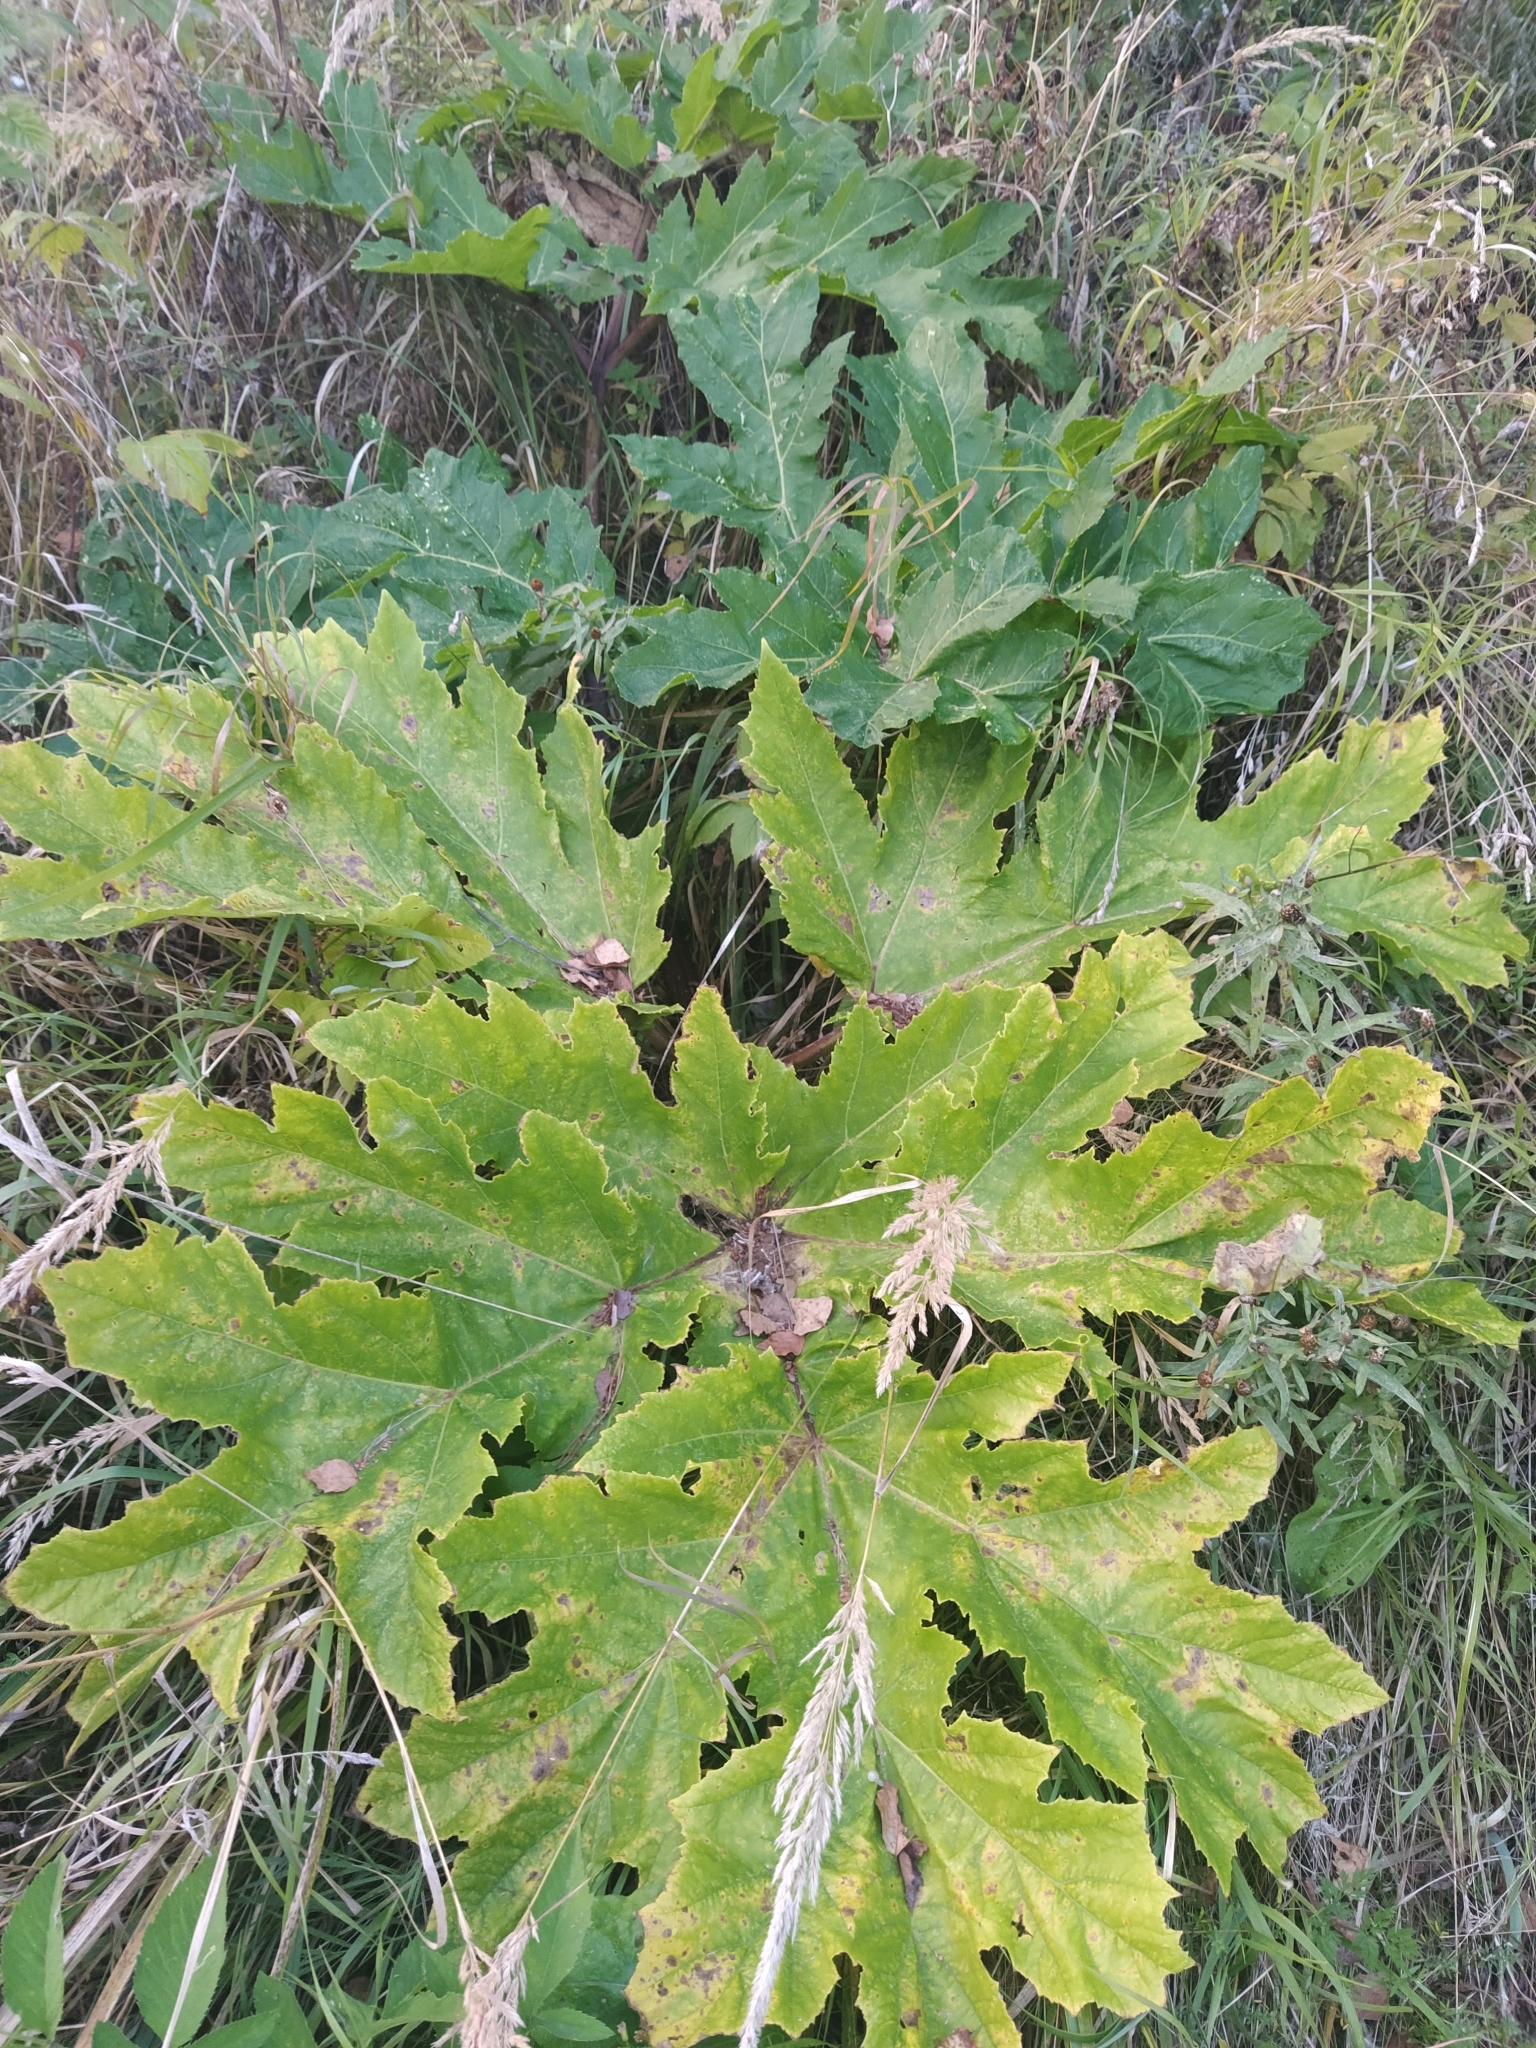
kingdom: Plantae
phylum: Tracheophyta
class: Magnoliopsida
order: Apiales
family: Apiaceae
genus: Heracleum
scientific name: Heracleum sosnowskyi
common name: Sosnowsky's hogweed
